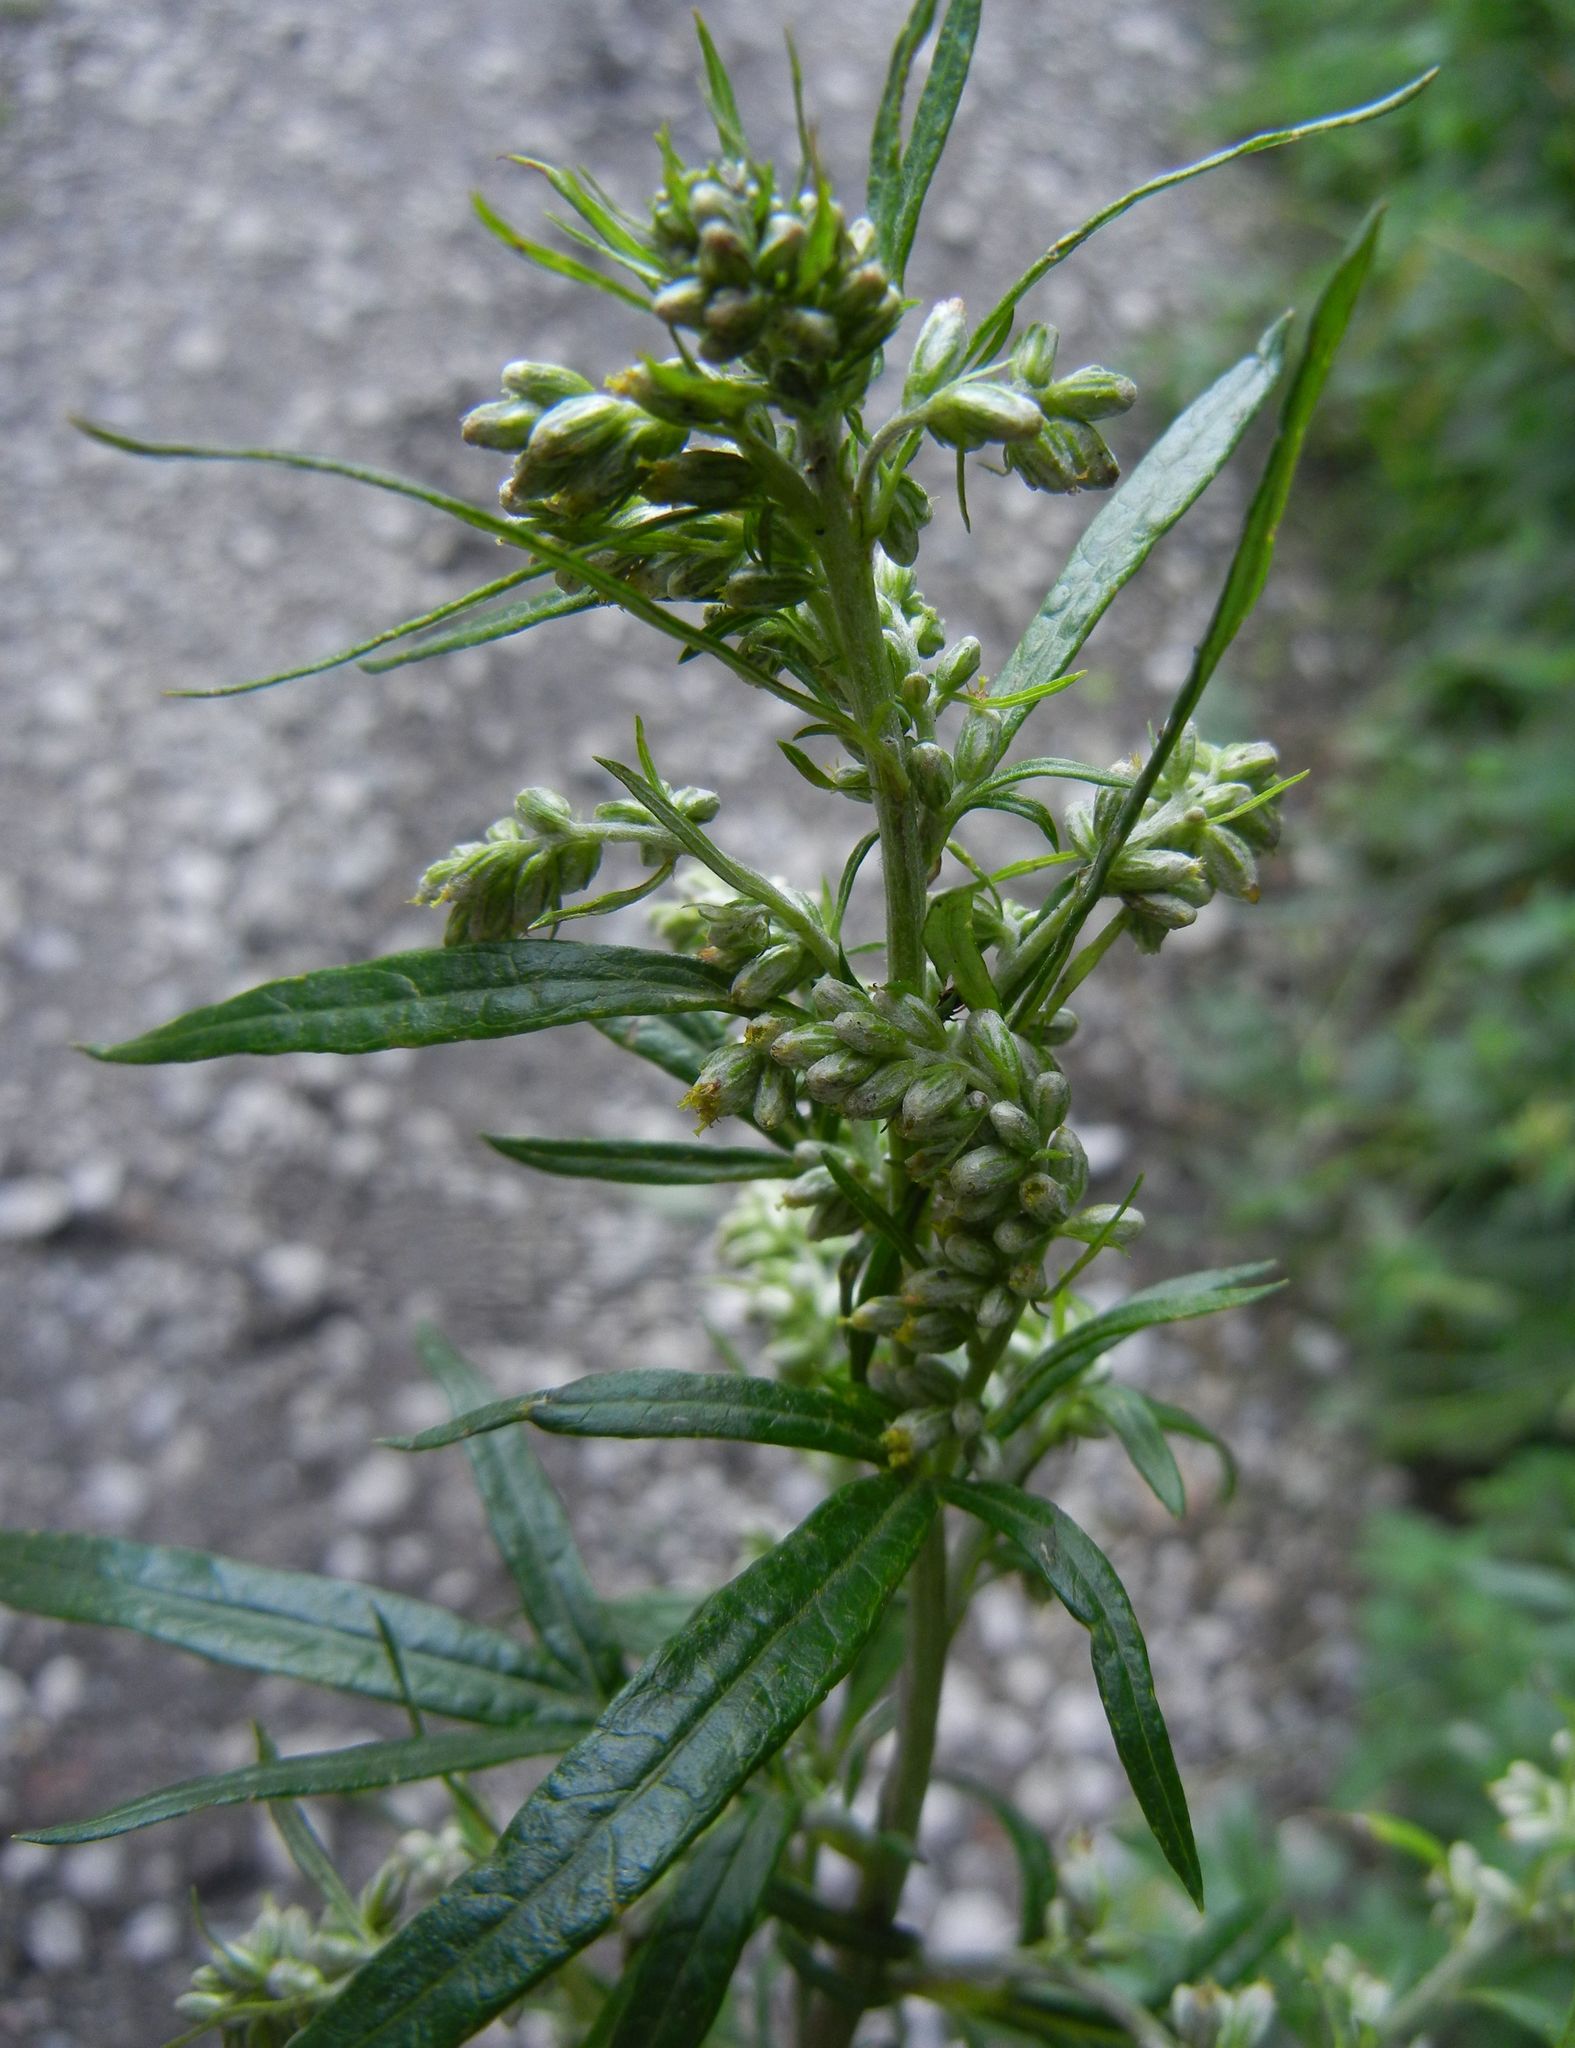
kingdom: Plantae
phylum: Tracheophyta
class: Magnoliopsida
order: Asterales
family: Asteraceae
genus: Artemisia
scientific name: Artemisia vulgaris
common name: Mugwort
